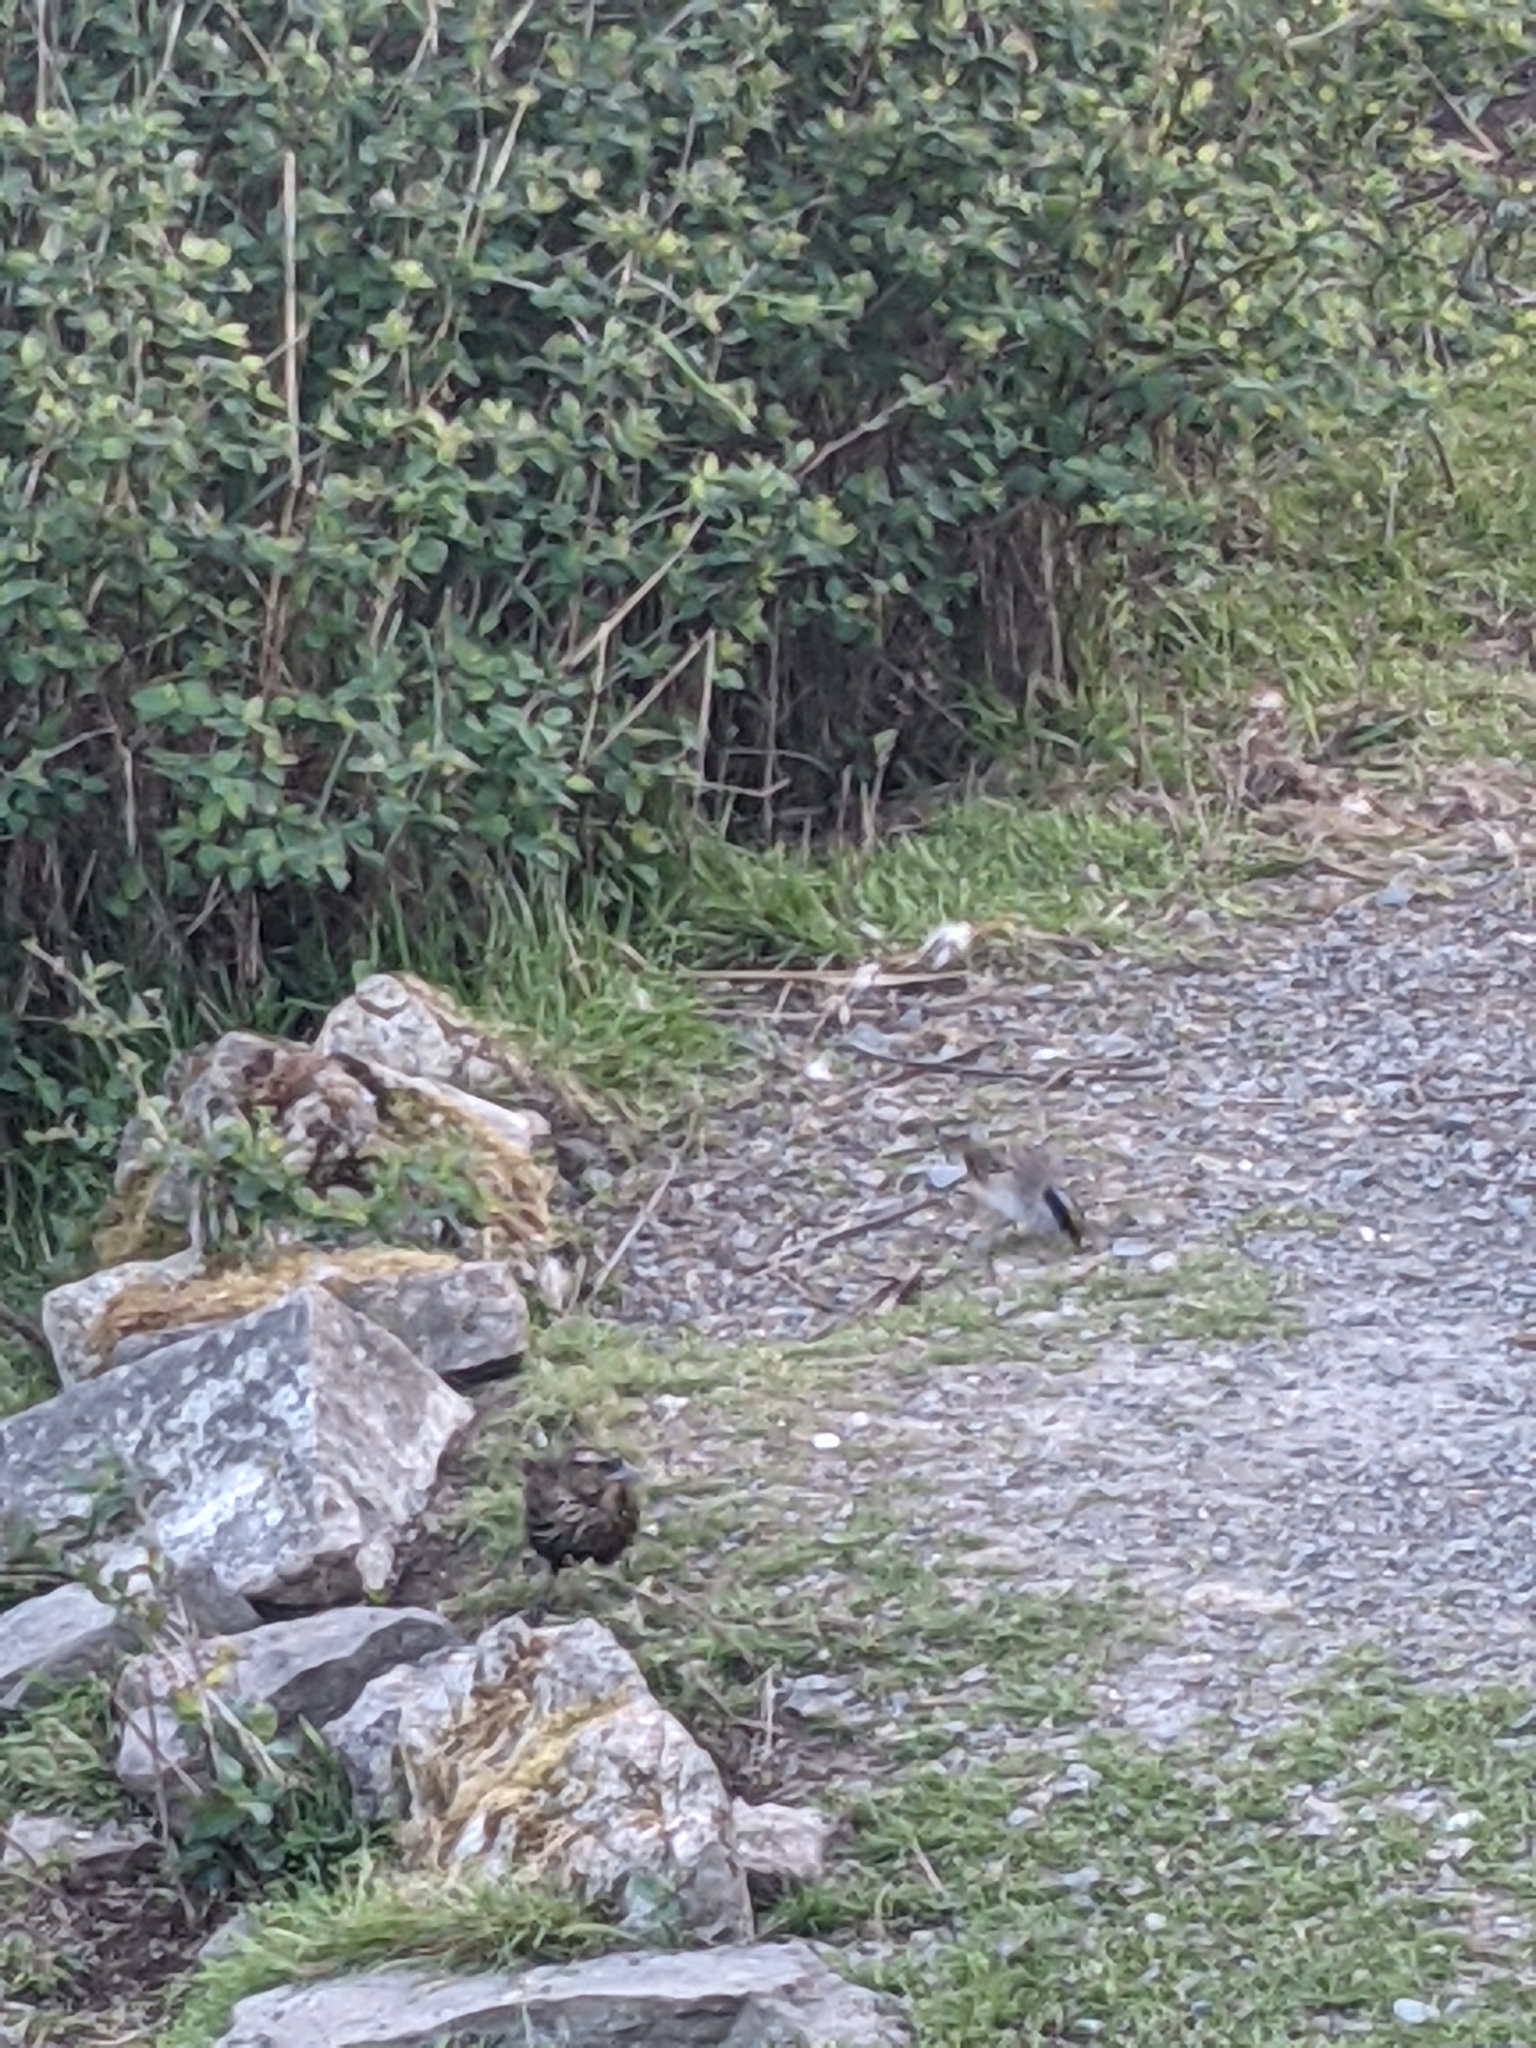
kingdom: Animalia
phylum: Chordata
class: Aves
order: Passeriformes
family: Icteridae
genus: Agelaius
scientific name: Agelaius phoeniceus
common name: Red-winged blackbird
